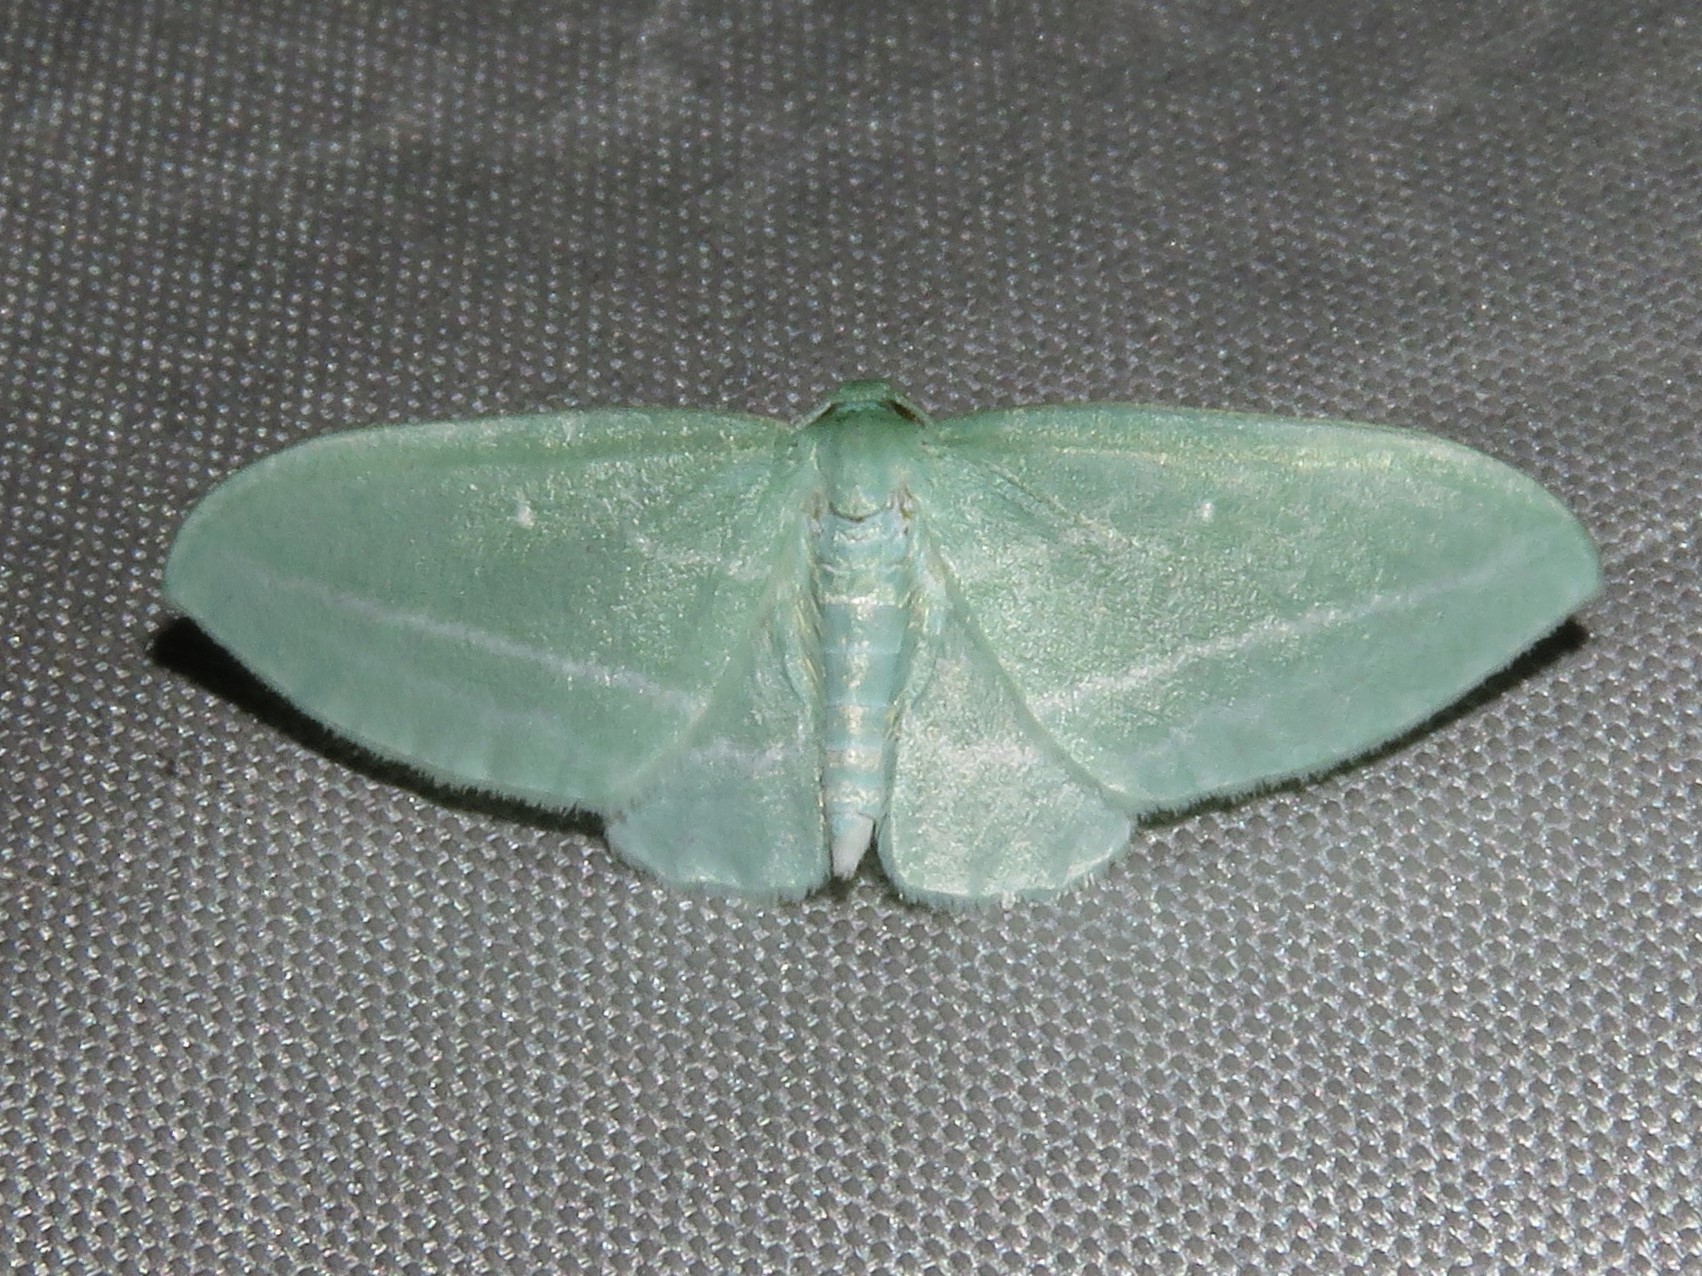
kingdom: Animalia
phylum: Arthropoda
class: Insecta
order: Lepidoptera
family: Geometridae
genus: Dyspteris
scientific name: Dyspteris abortivaria
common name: Bad-wing
